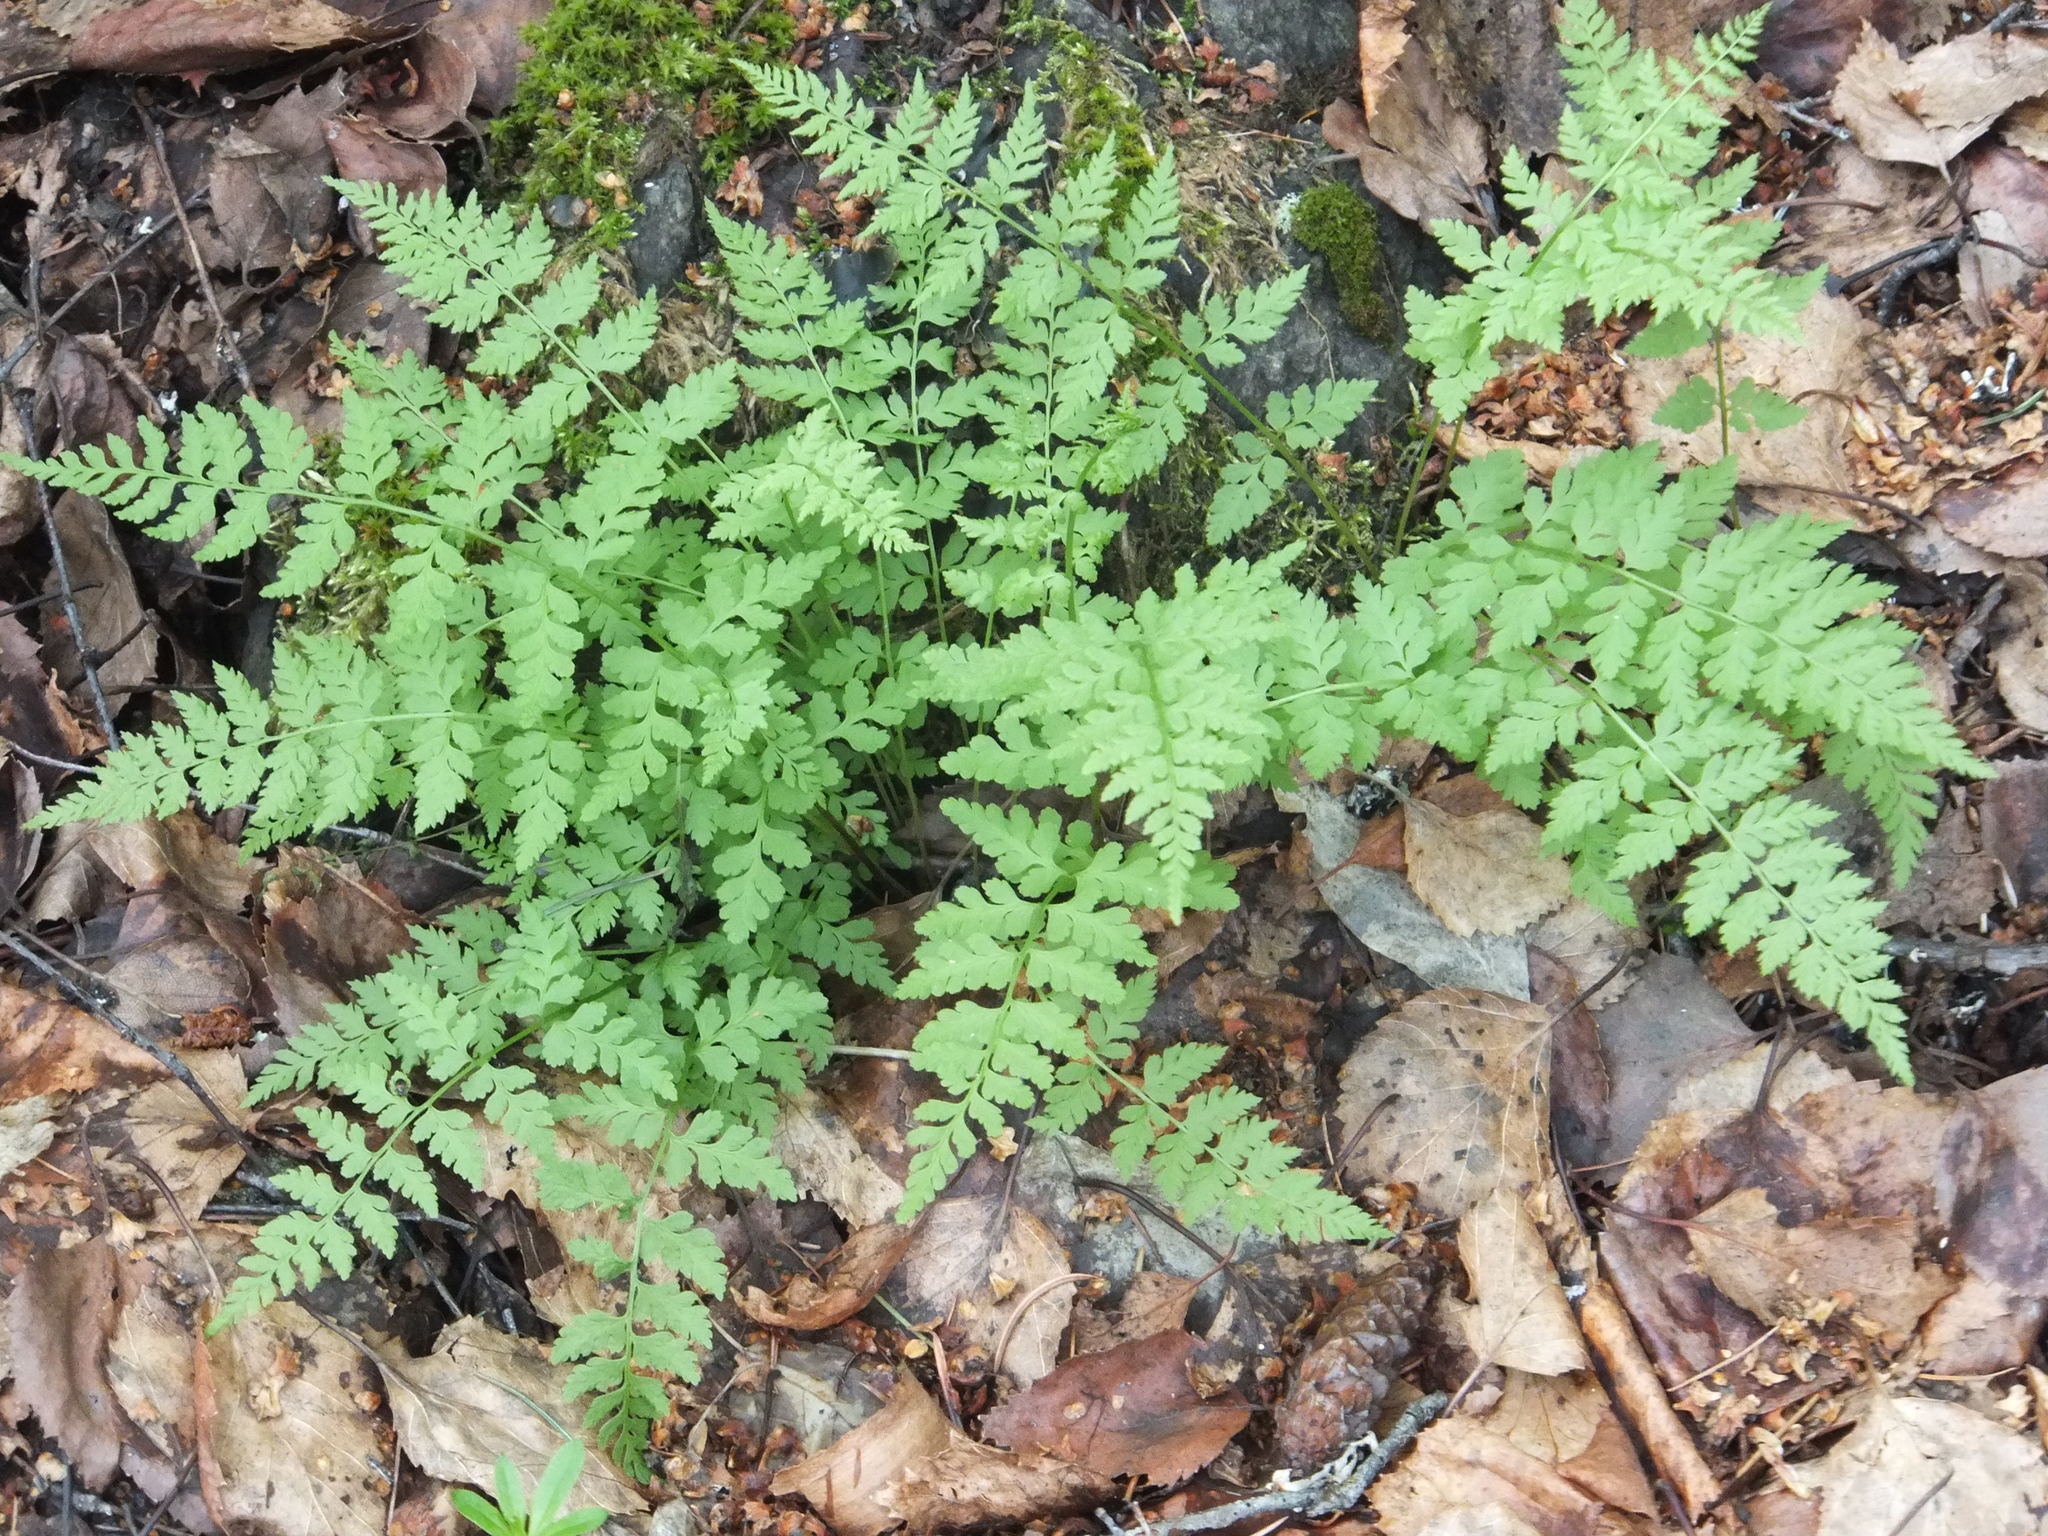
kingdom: Plantae
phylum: Tracheophyta
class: Polypodiopsida
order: Polypodiales
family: Cystopteridaceae
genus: Cystopteris
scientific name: Cystopteris fragilis
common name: Brittle bladder fern
